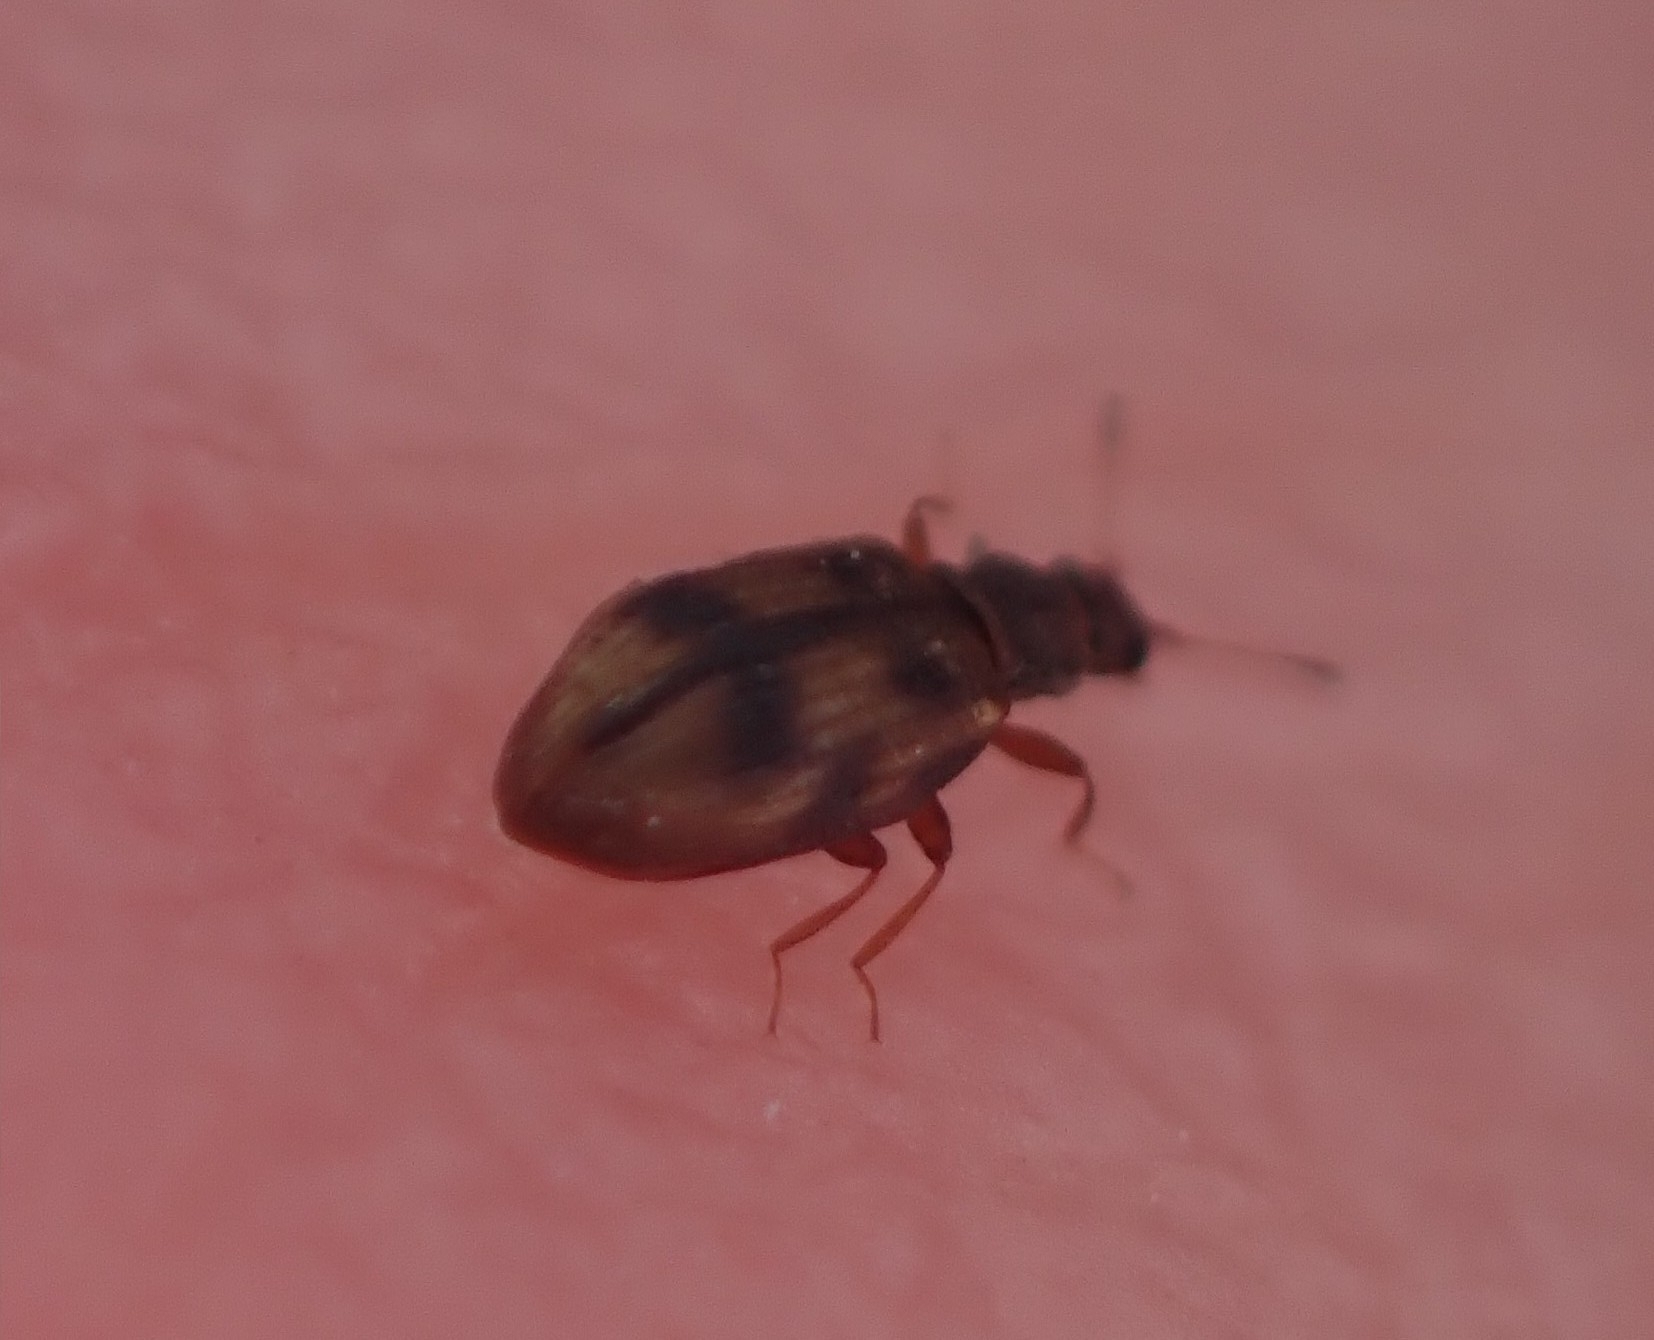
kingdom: Animalia
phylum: Arthropoda
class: Insecta
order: Coleoptera
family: Latridiidae
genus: Cartodere
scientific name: Cartodere bifasciata
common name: Plaster beetle
